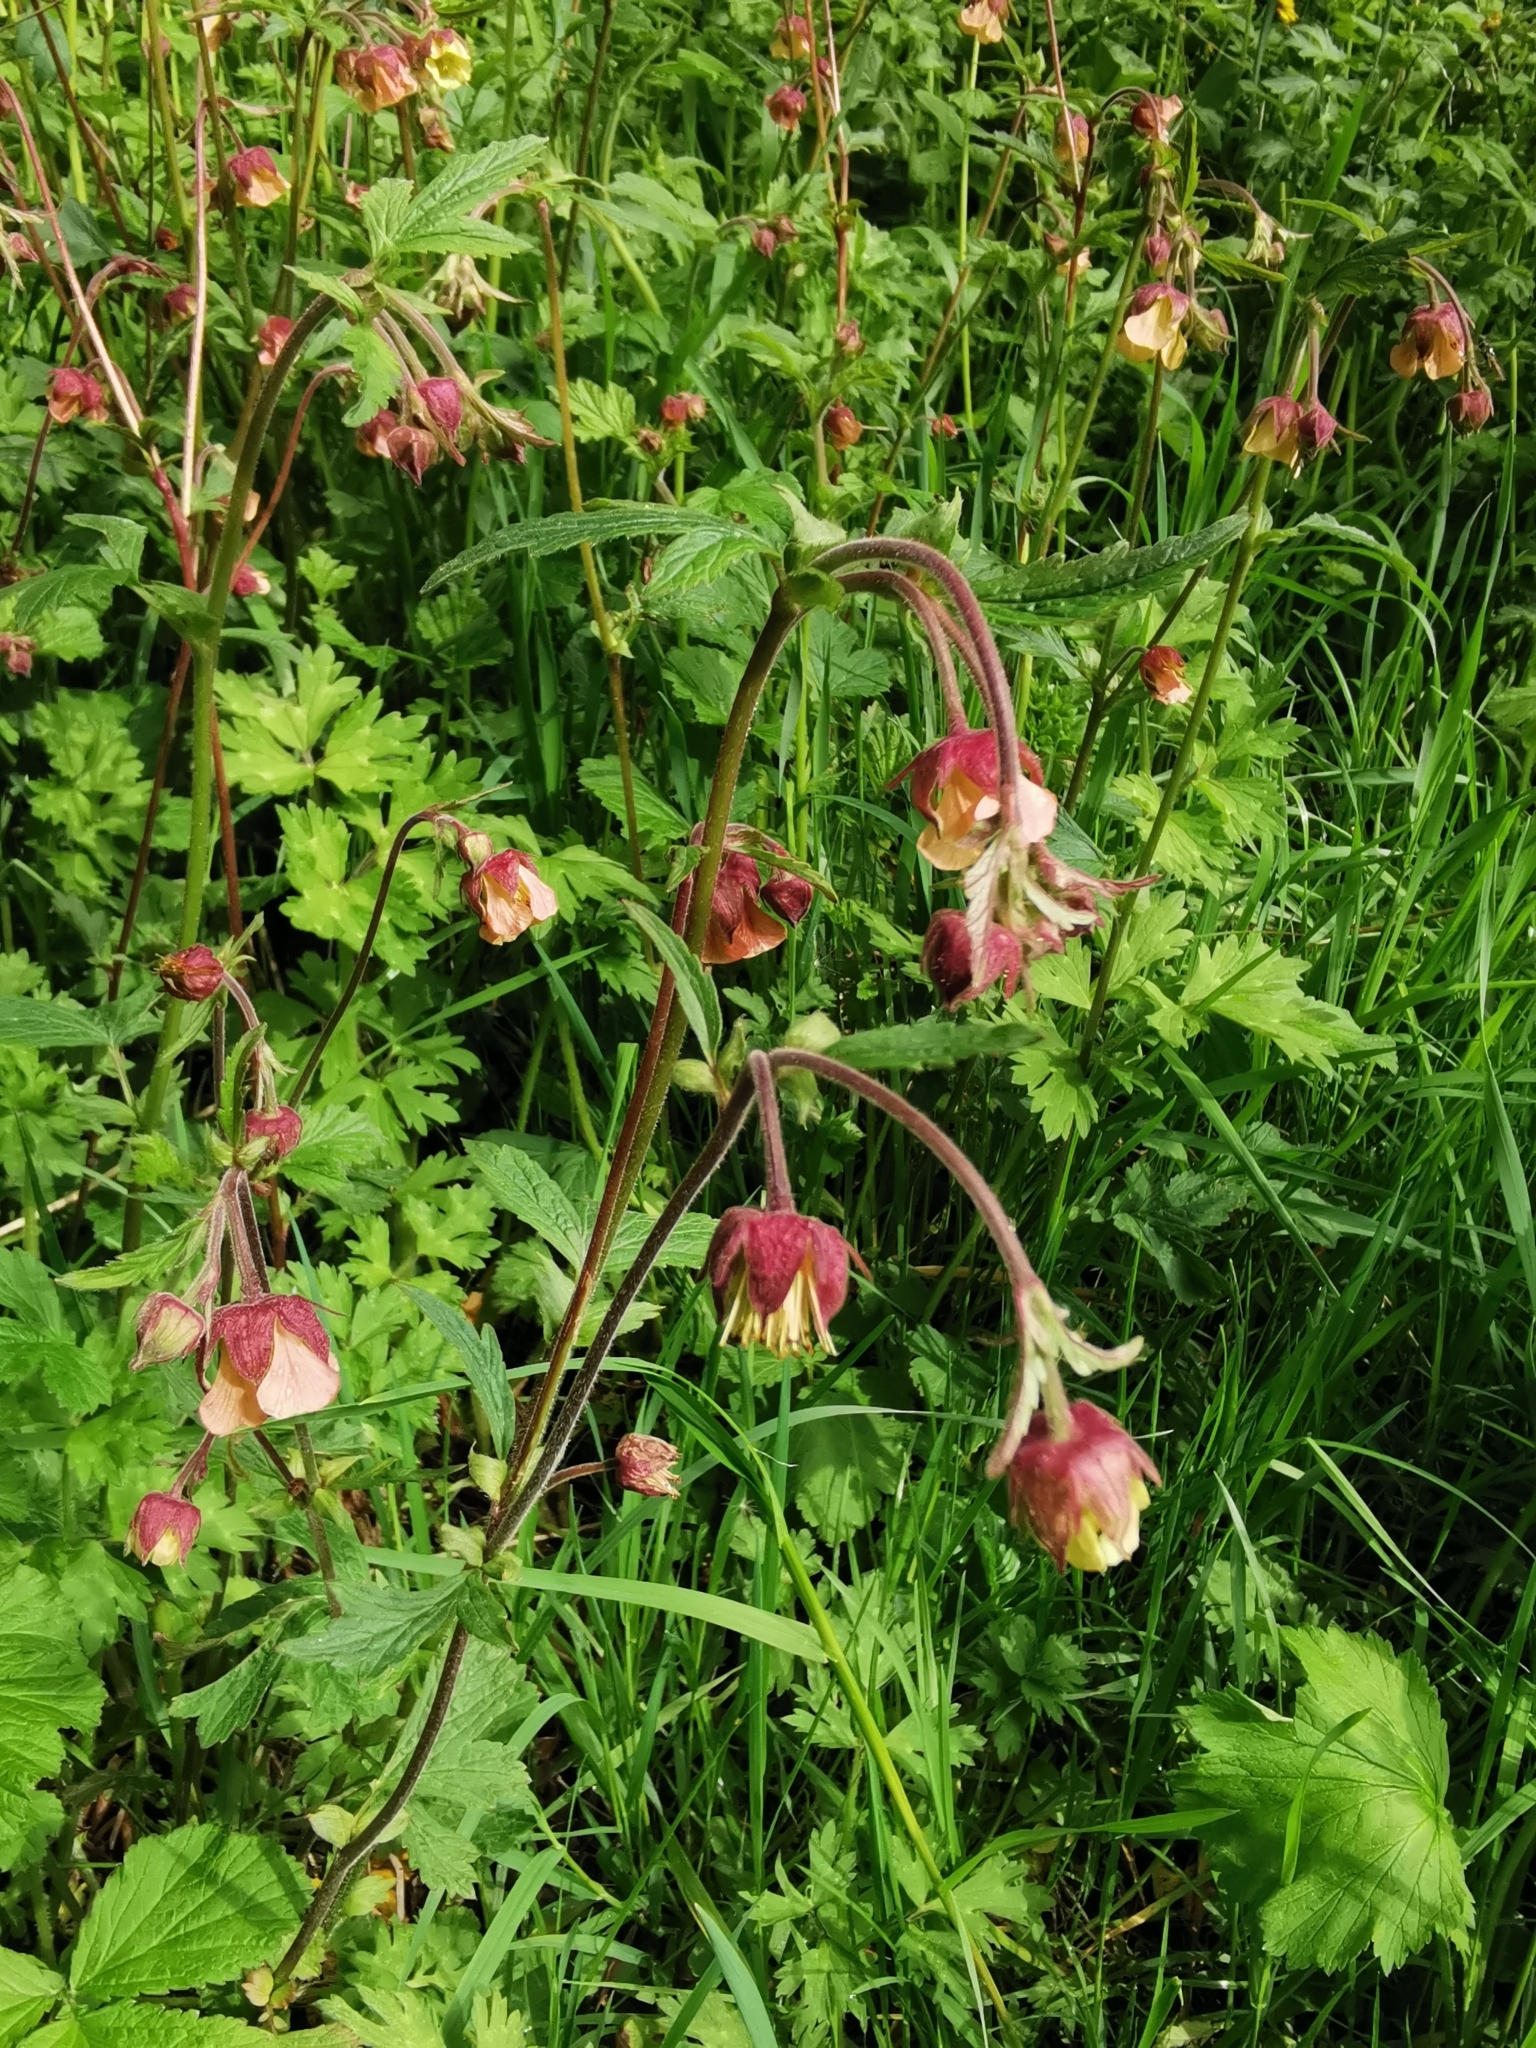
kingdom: Plantae
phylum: Tracheophyta
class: Magnoliopsida
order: Rosales
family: Rosaceae
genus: Geum
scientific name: Geum rivale
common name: Water avens
